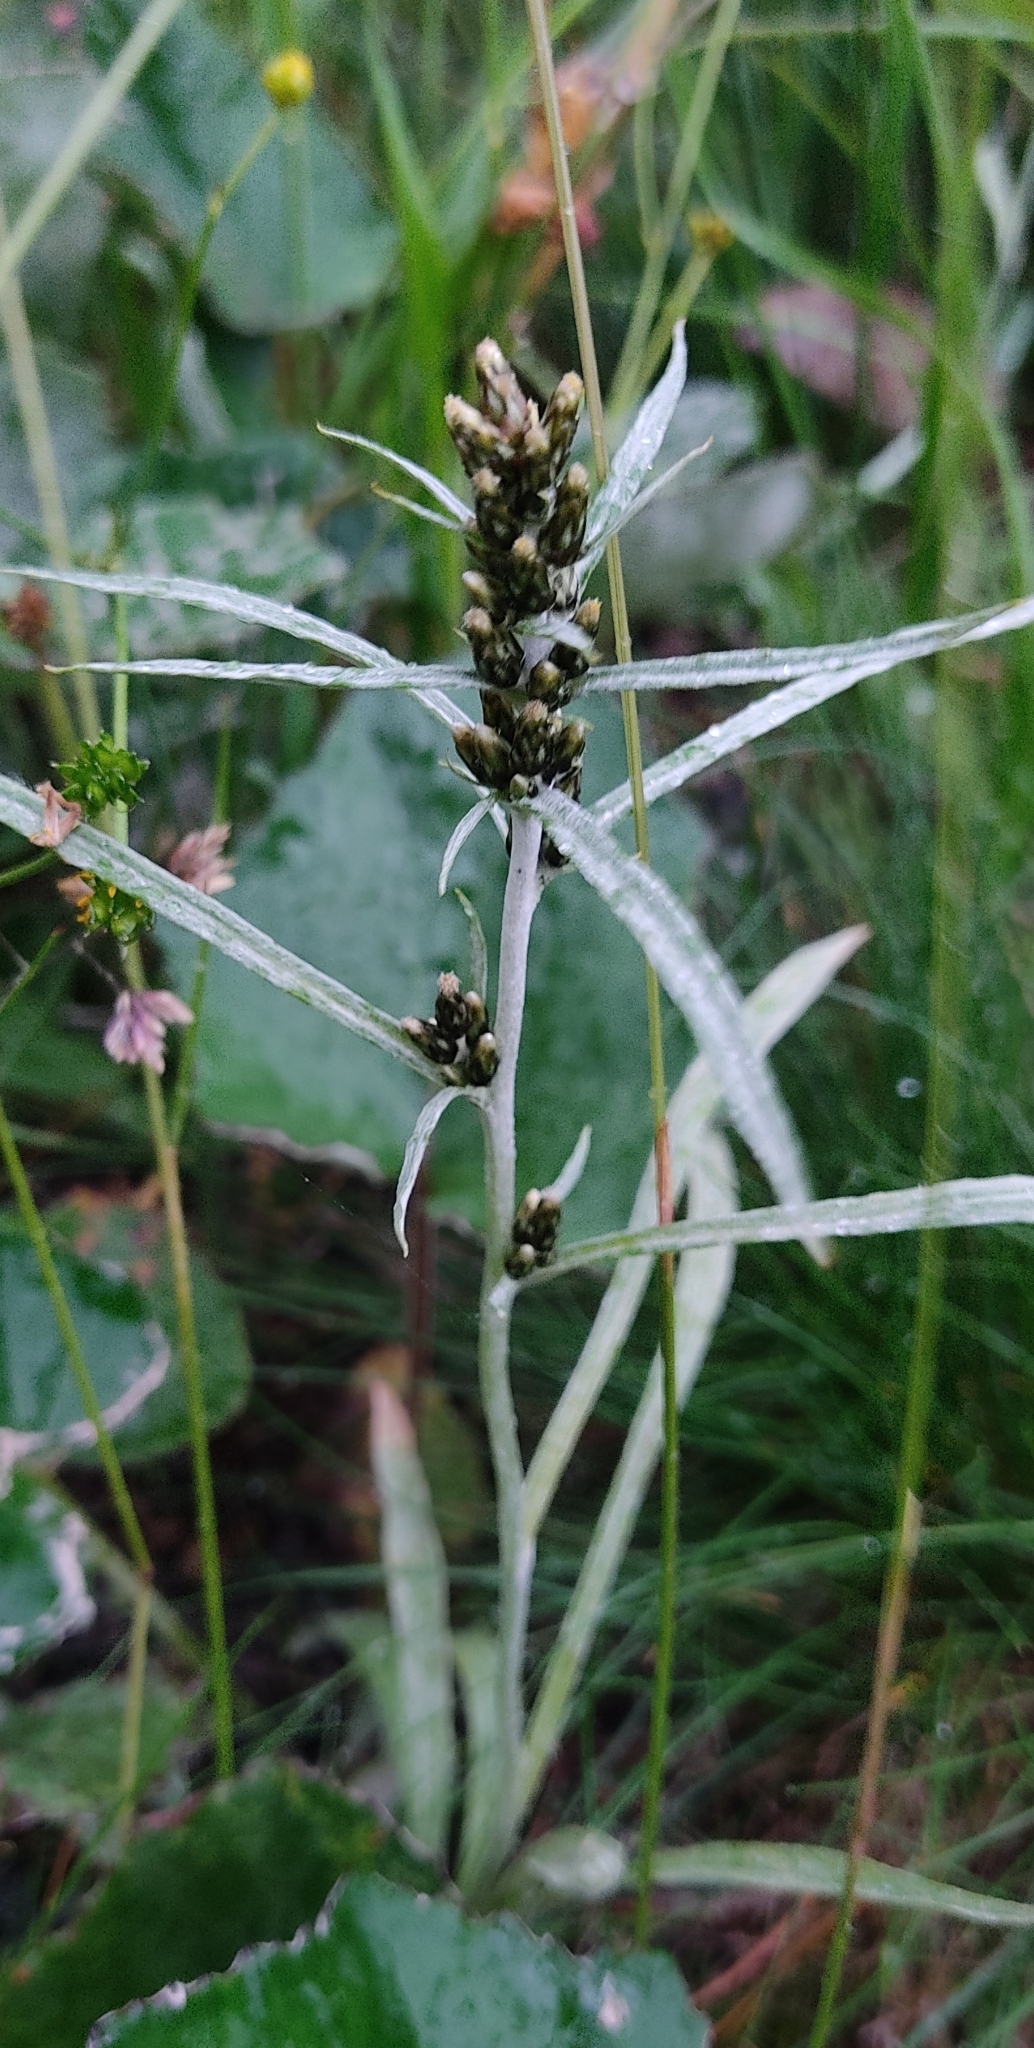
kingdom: Plantae
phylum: Tracheophyta
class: Magnoliopsida
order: Asterales
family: Asteraceae
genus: Omalotheca
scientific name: Omalotheca norvegica
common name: Norwegian arctic-cudweed
